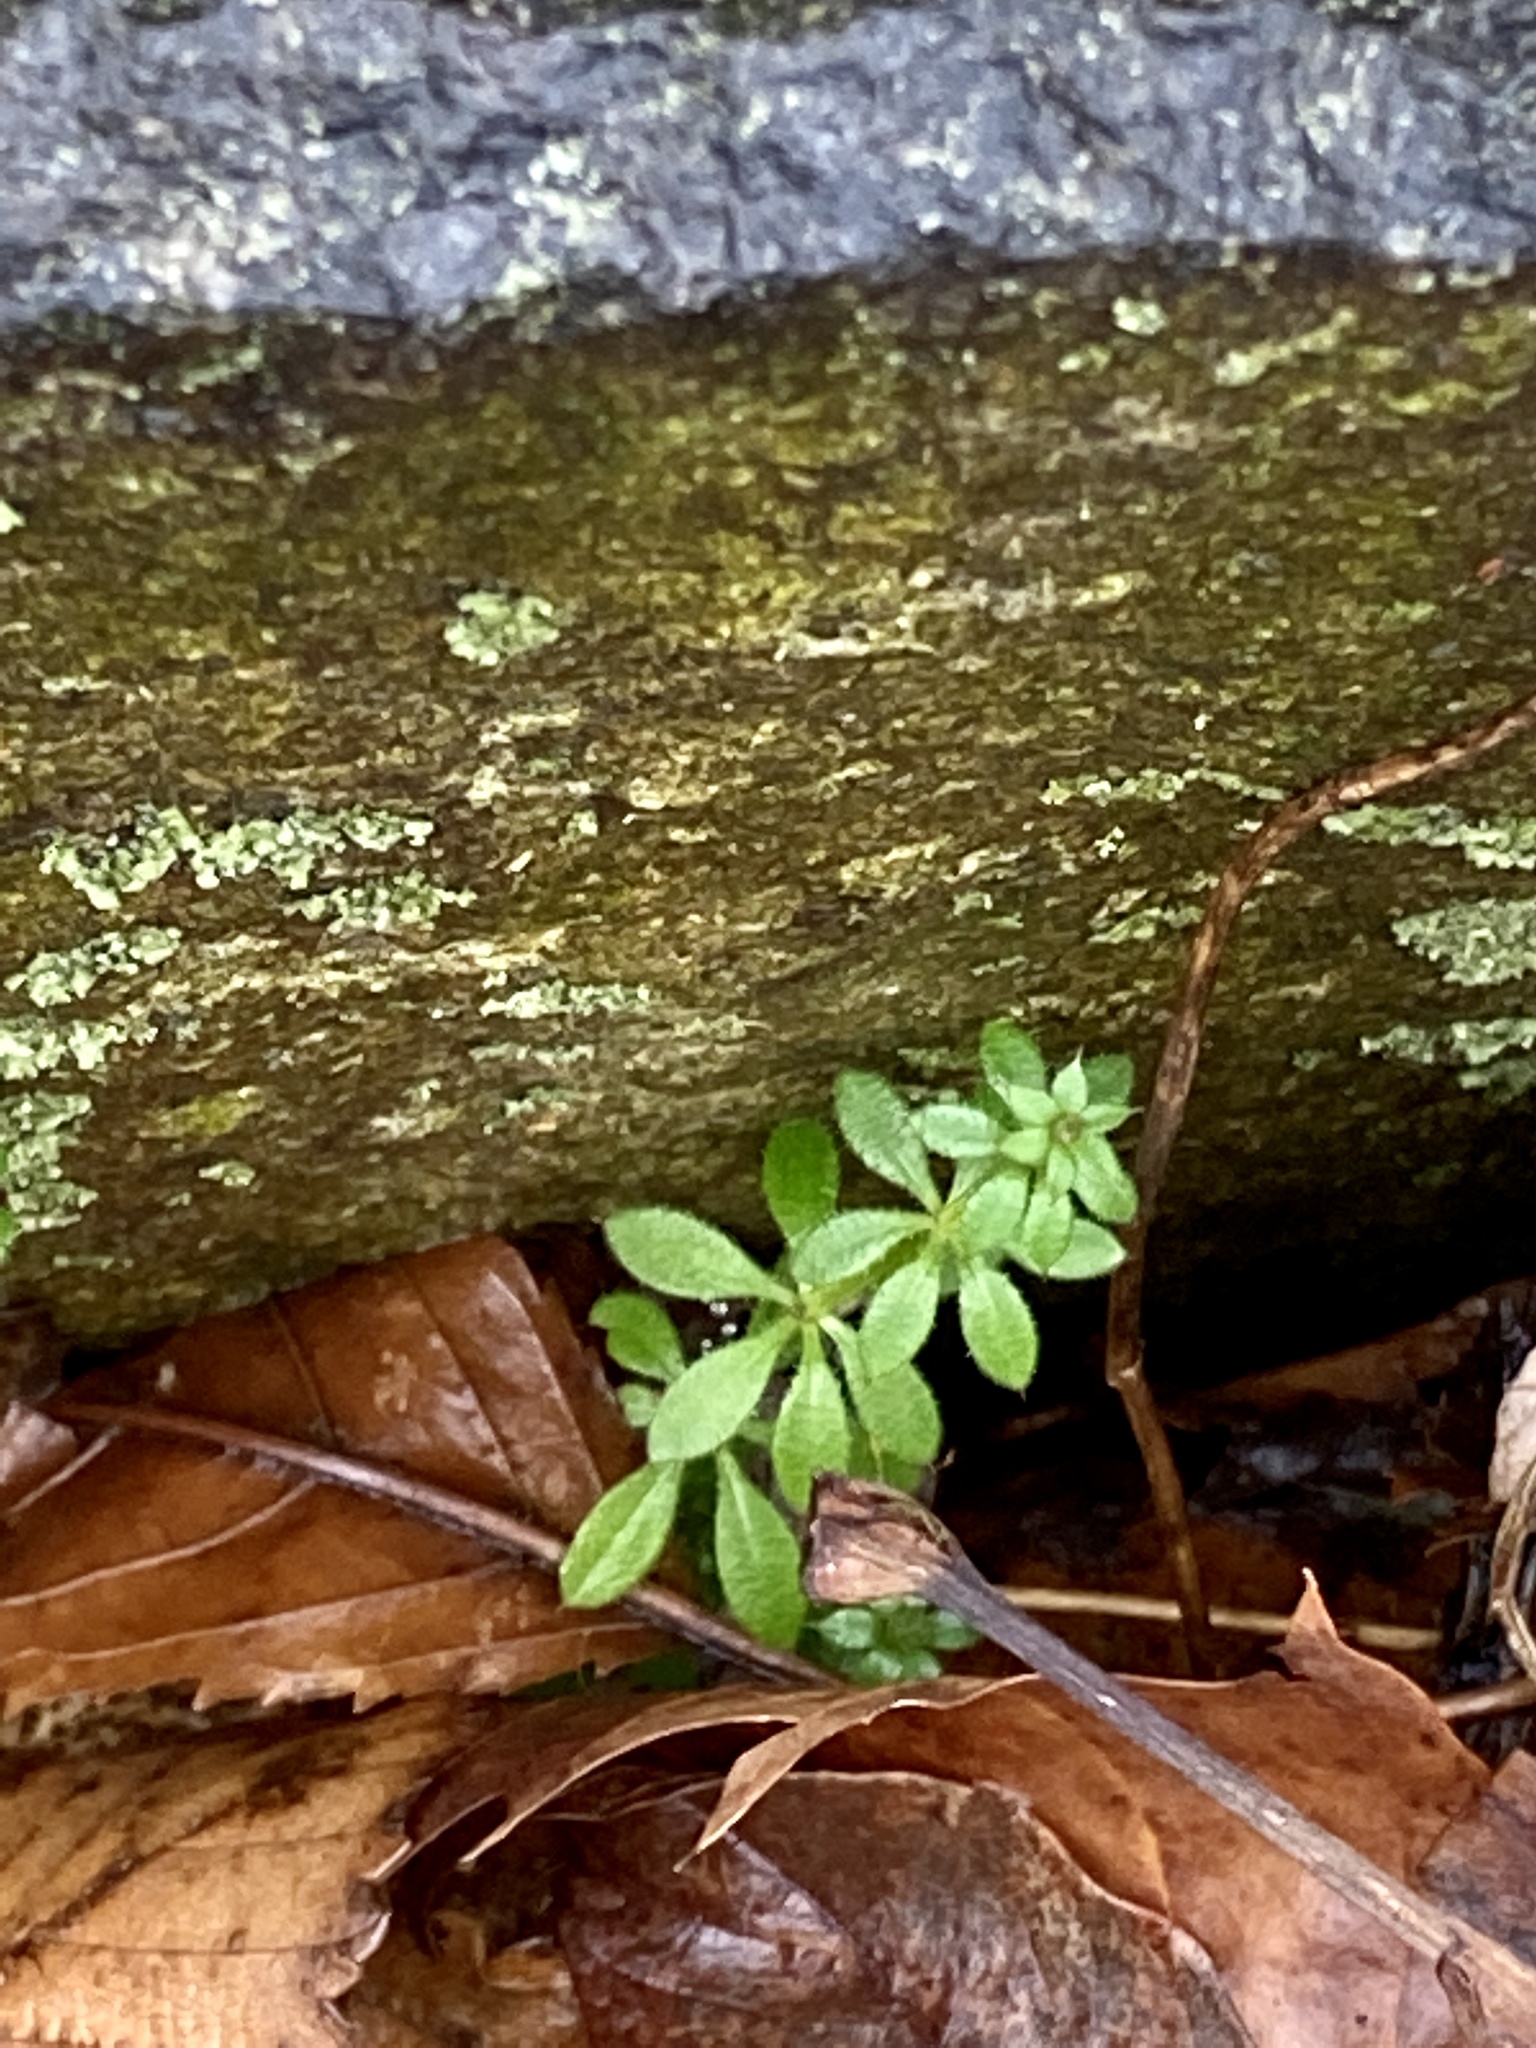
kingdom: Plantae
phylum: Tracheophyta
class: Magnoliopsida
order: Gentianales
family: Rubiaceae
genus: Galium
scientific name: Galium aparine
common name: Cleavers
